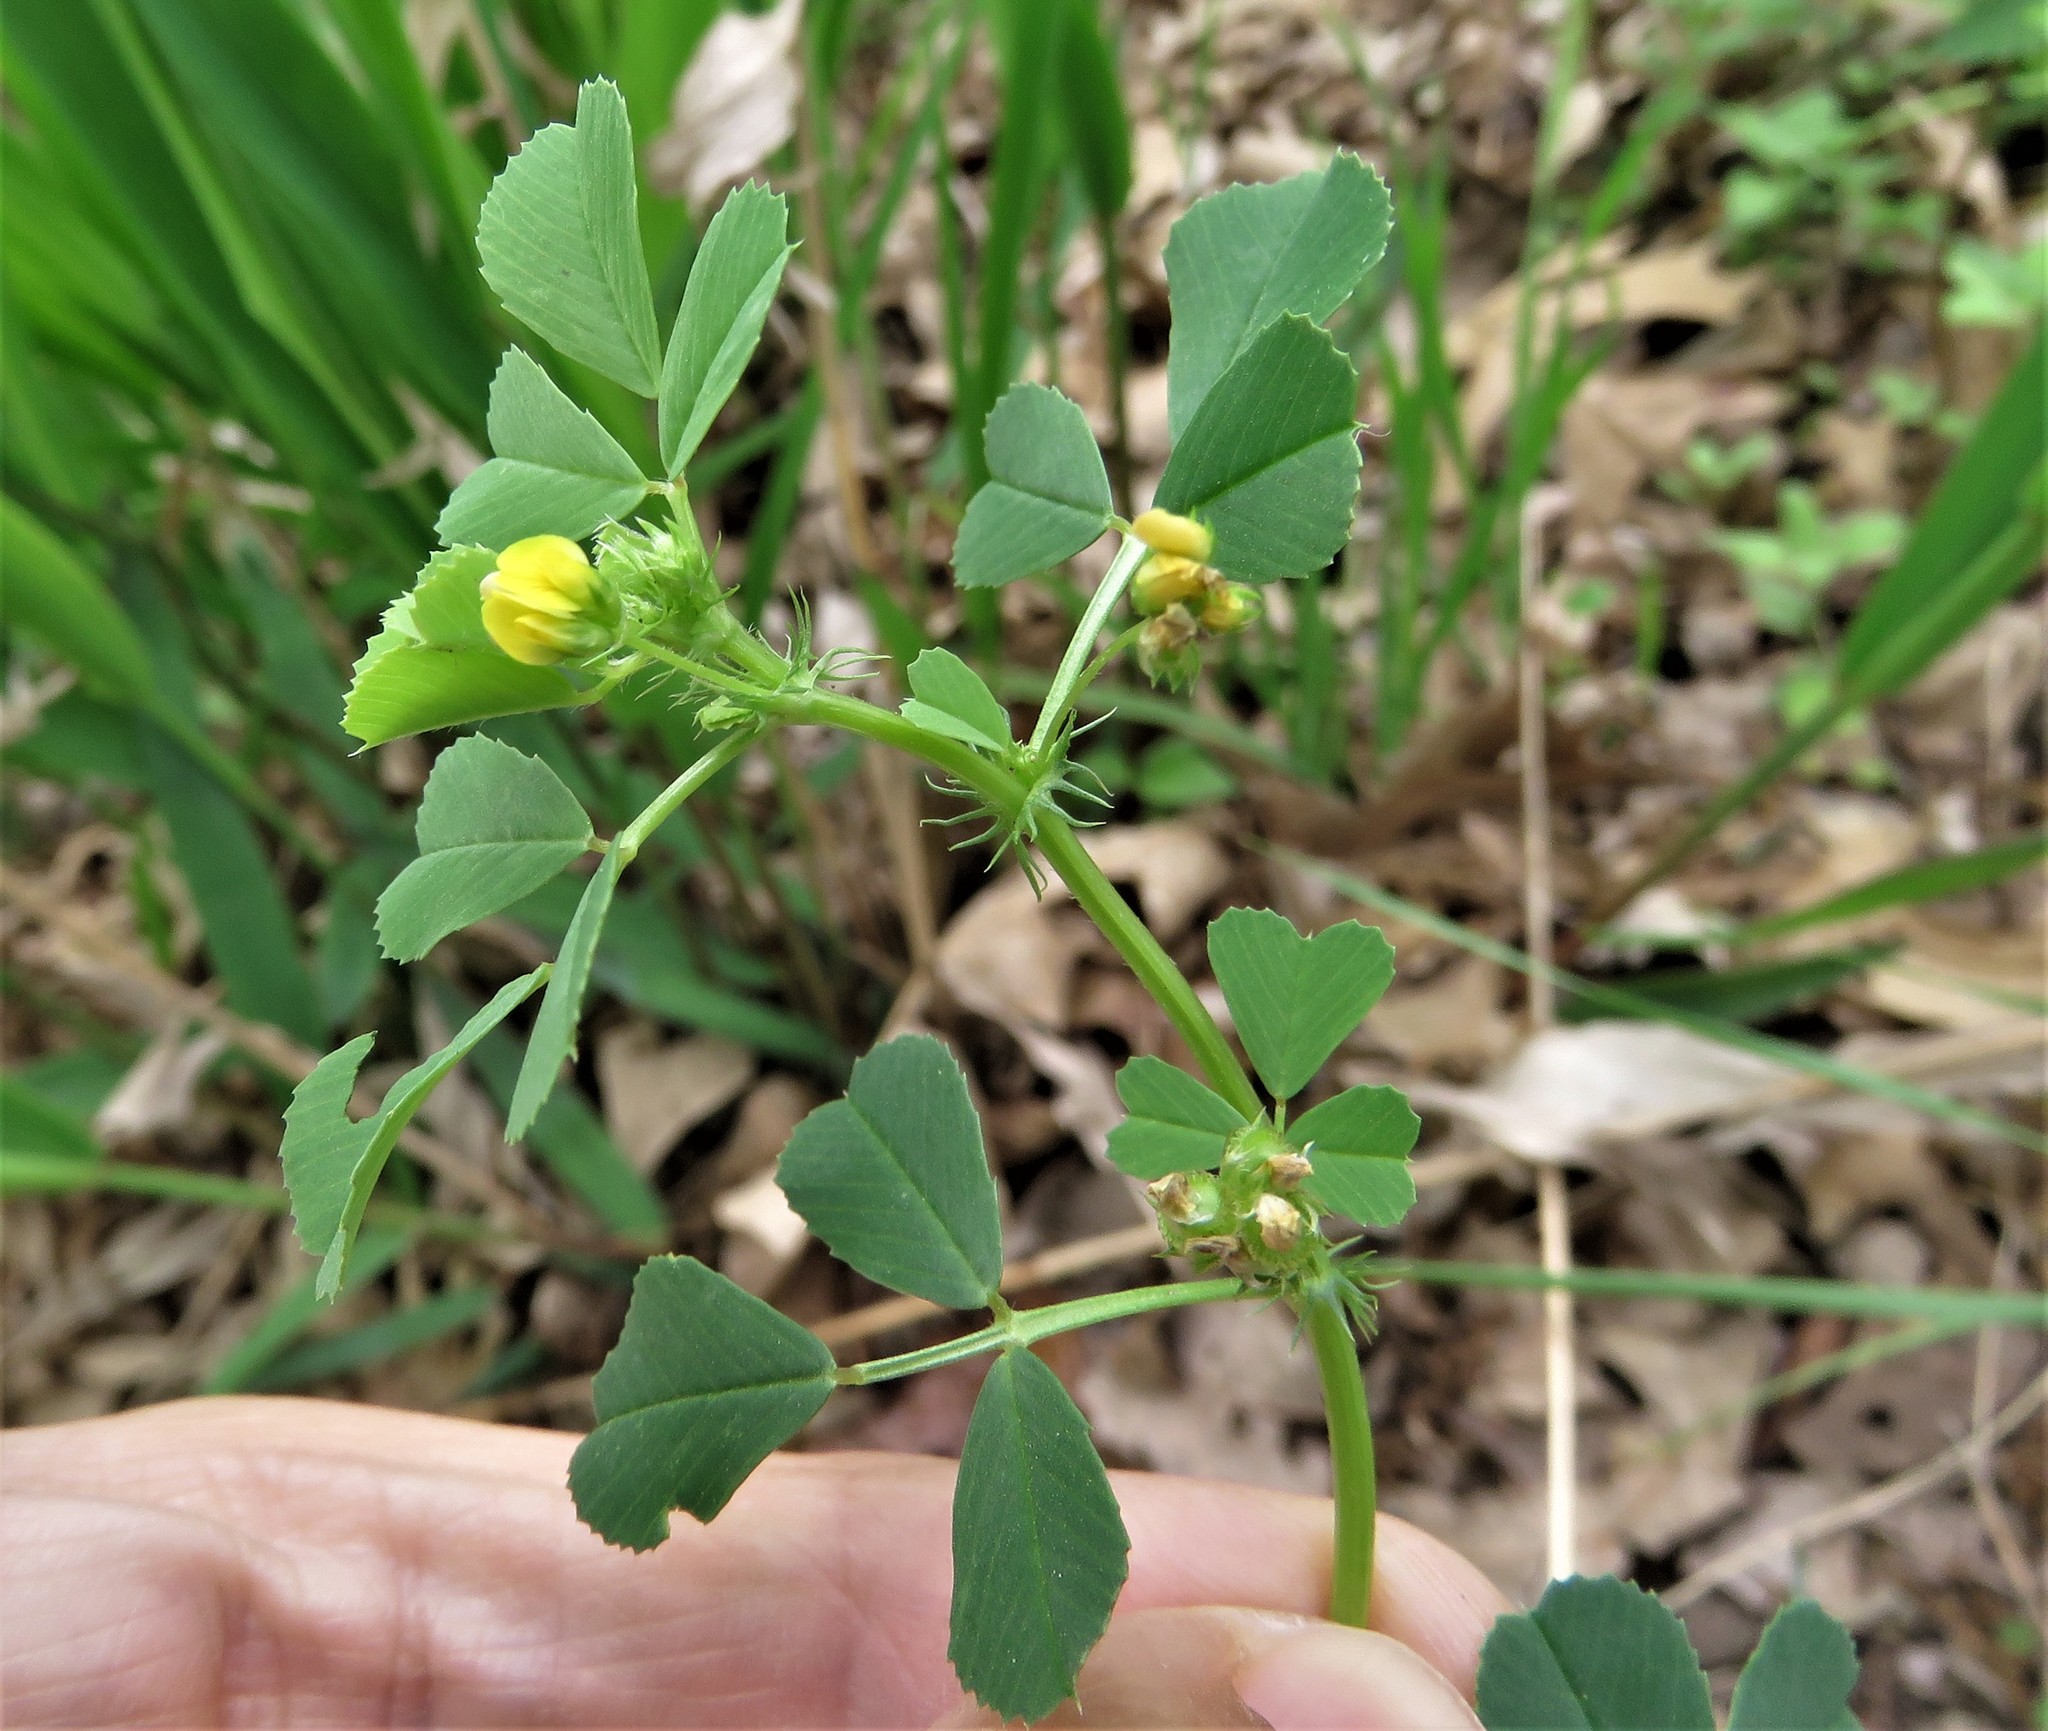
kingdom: Plantae
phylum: Tracheophyta
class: Magnoliopsida
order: Fabales
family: Fabaceae
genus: Medicago
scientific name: Medicago polymorpha
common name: Burclover
